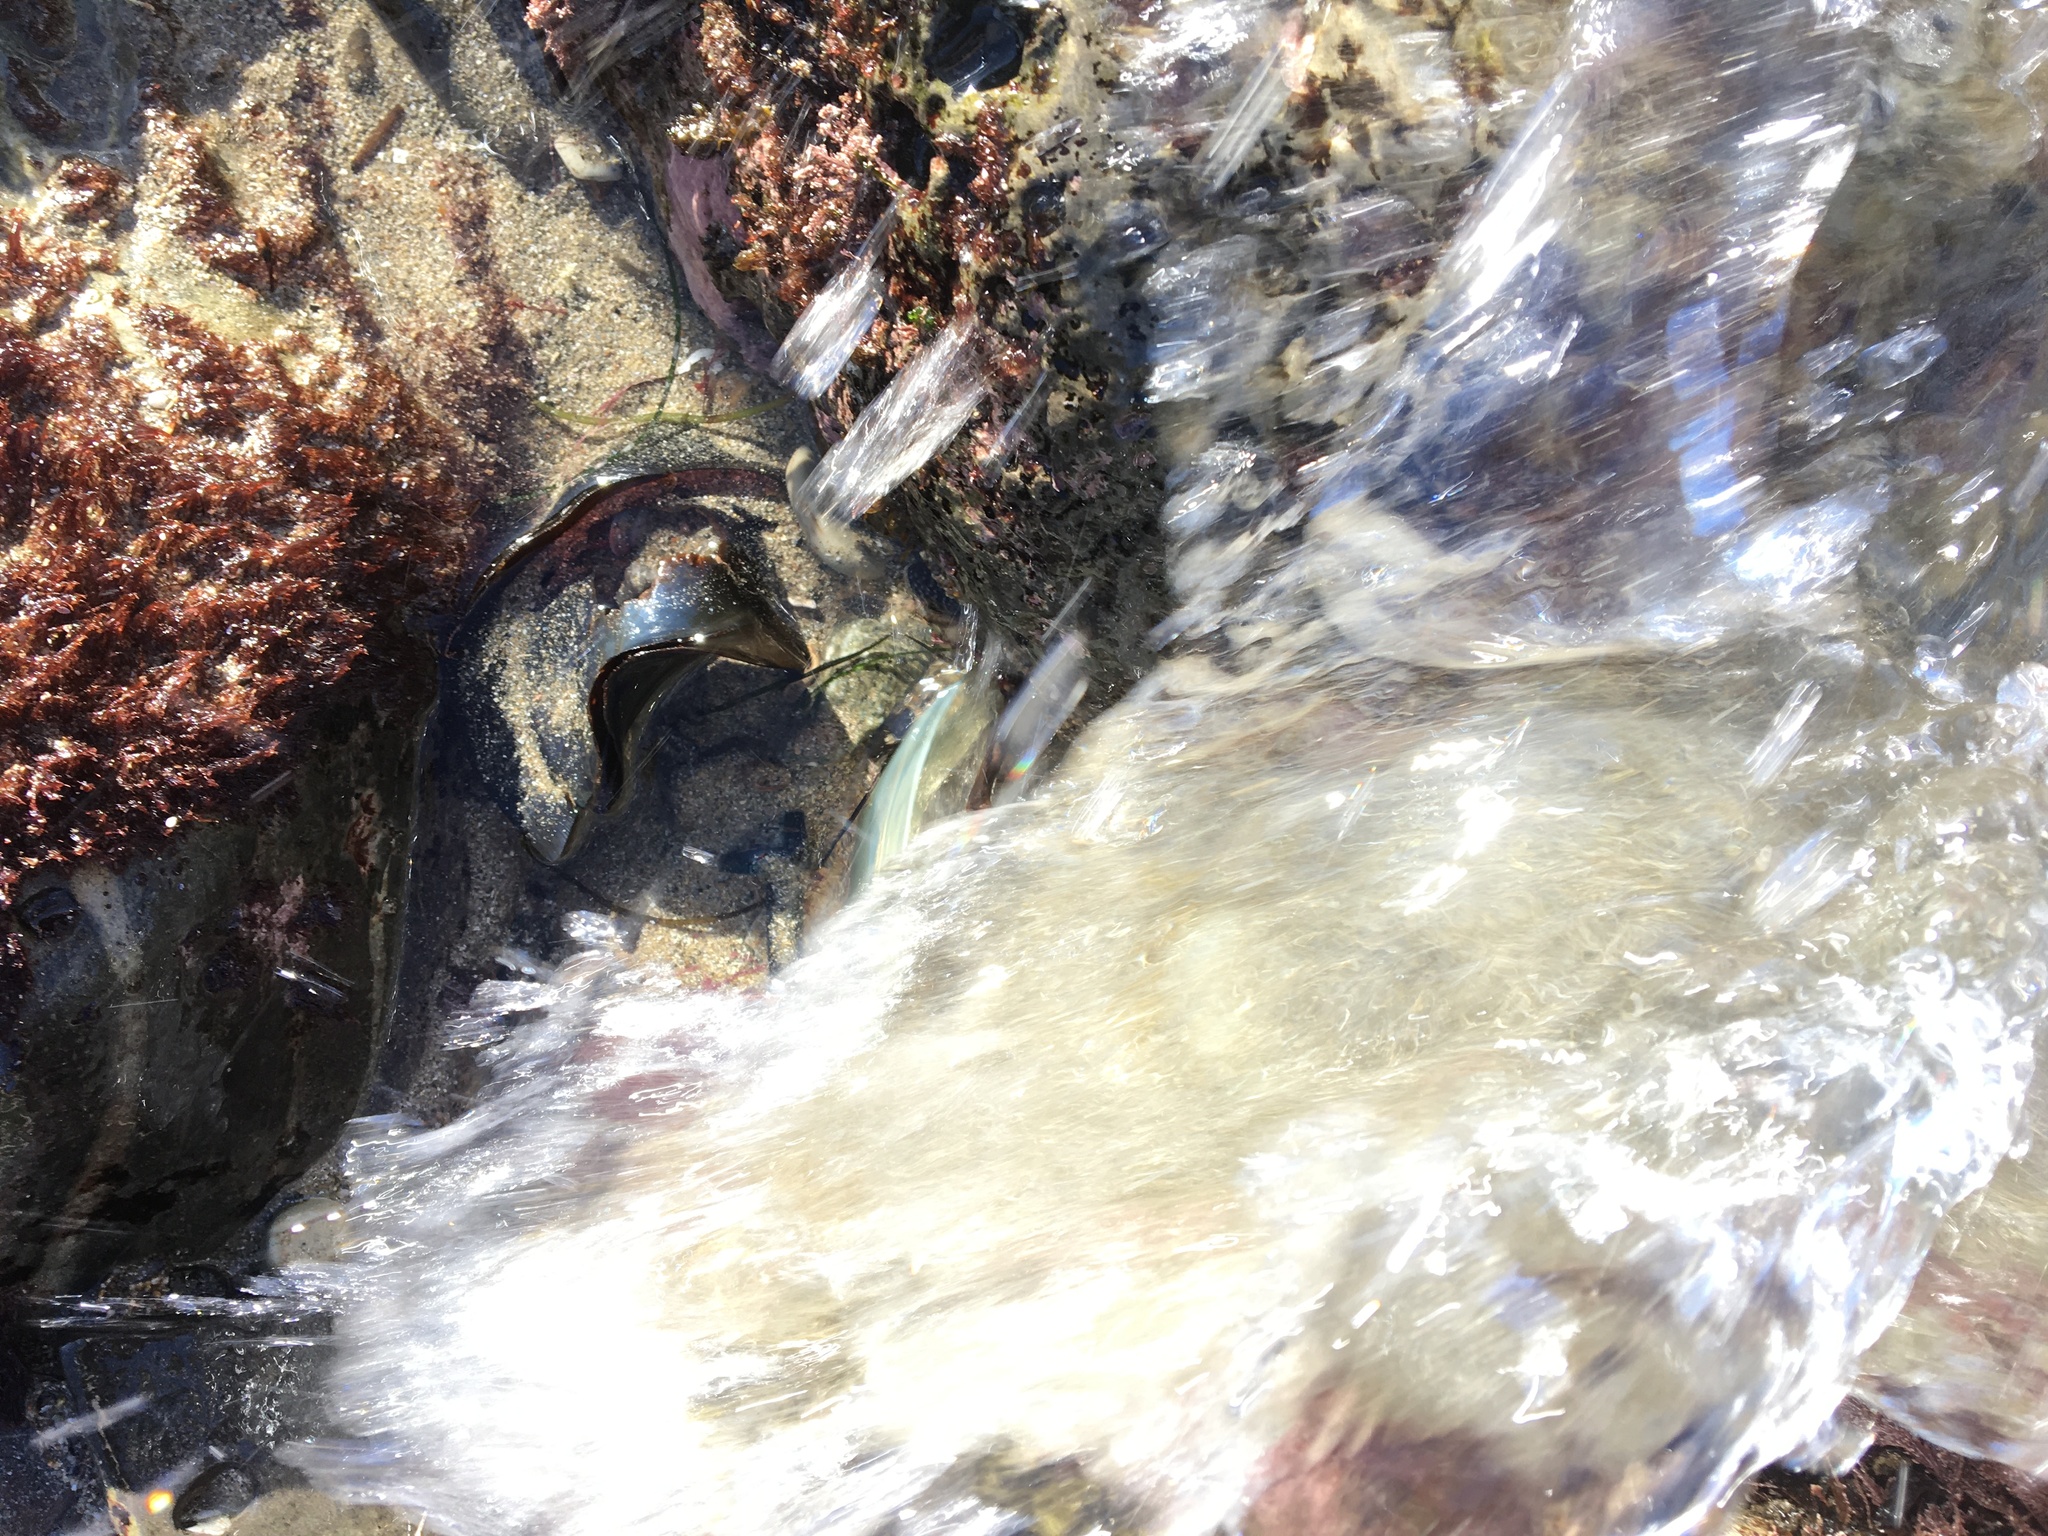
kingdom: Animalia
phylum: Chordata
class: Elasmobranchii
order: Heterodontiformes
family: Heterodontidae
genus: Heterodontus
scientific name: Heterodontus francisci
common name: Horn shark
